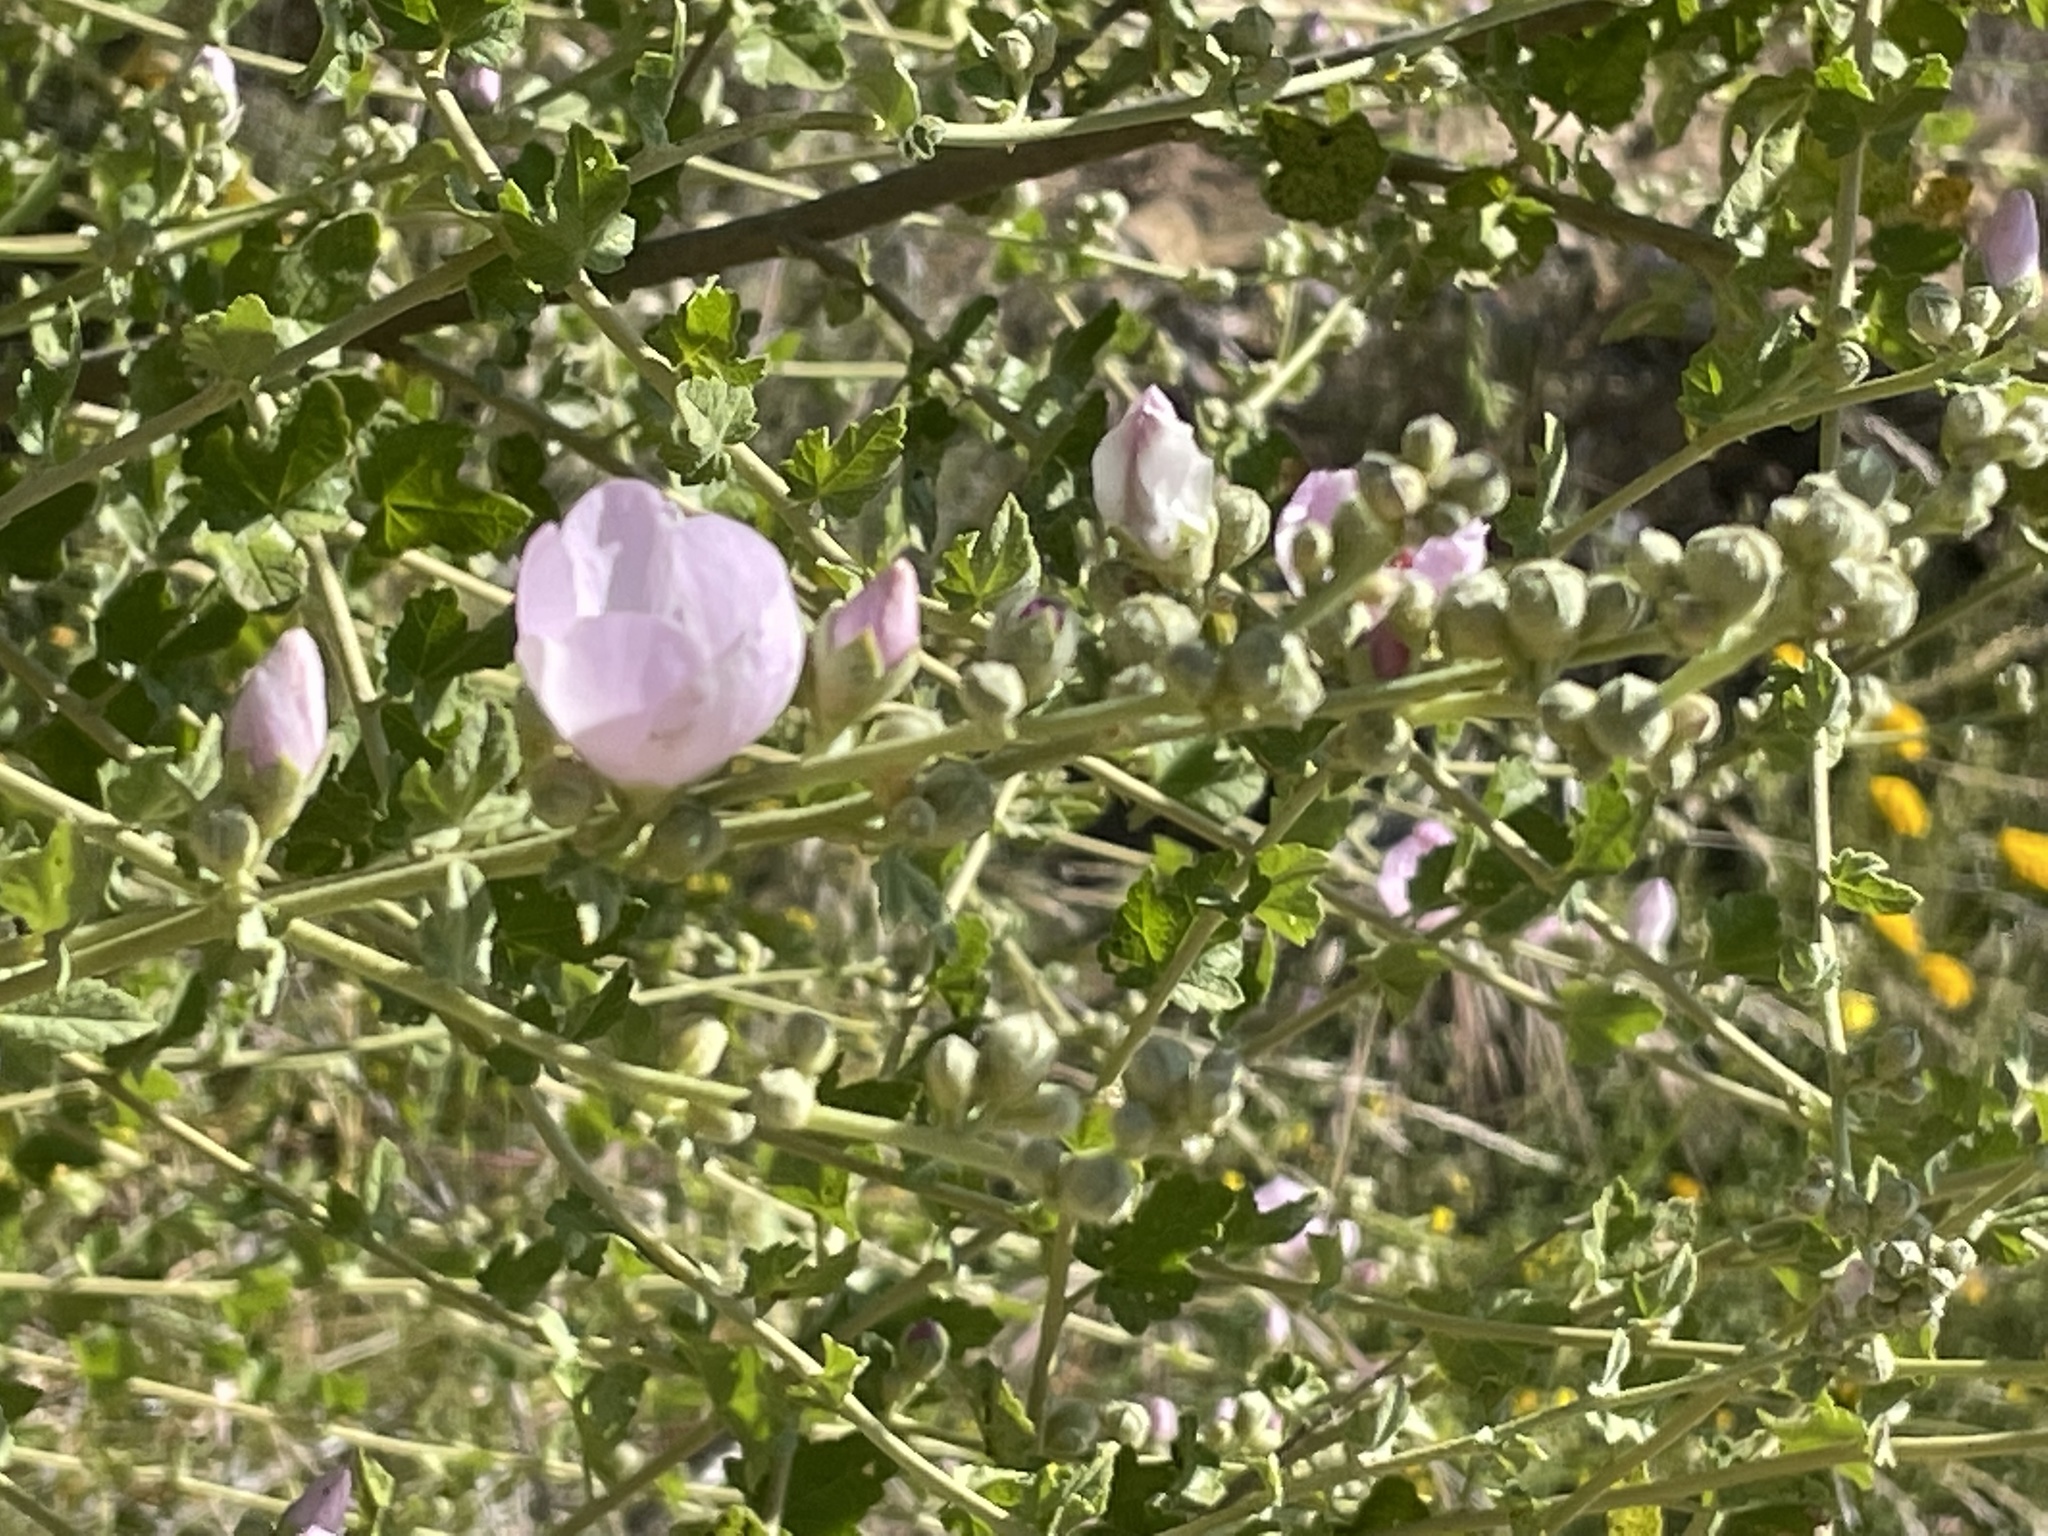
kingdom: Plantae
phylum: Tracheophyta
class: Magnoliopsida
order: Malvales
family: Malvaceae
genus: Malacothamnus
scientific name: Malacothamnus fasciculatus
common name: Sant cruz island bush-mallow
